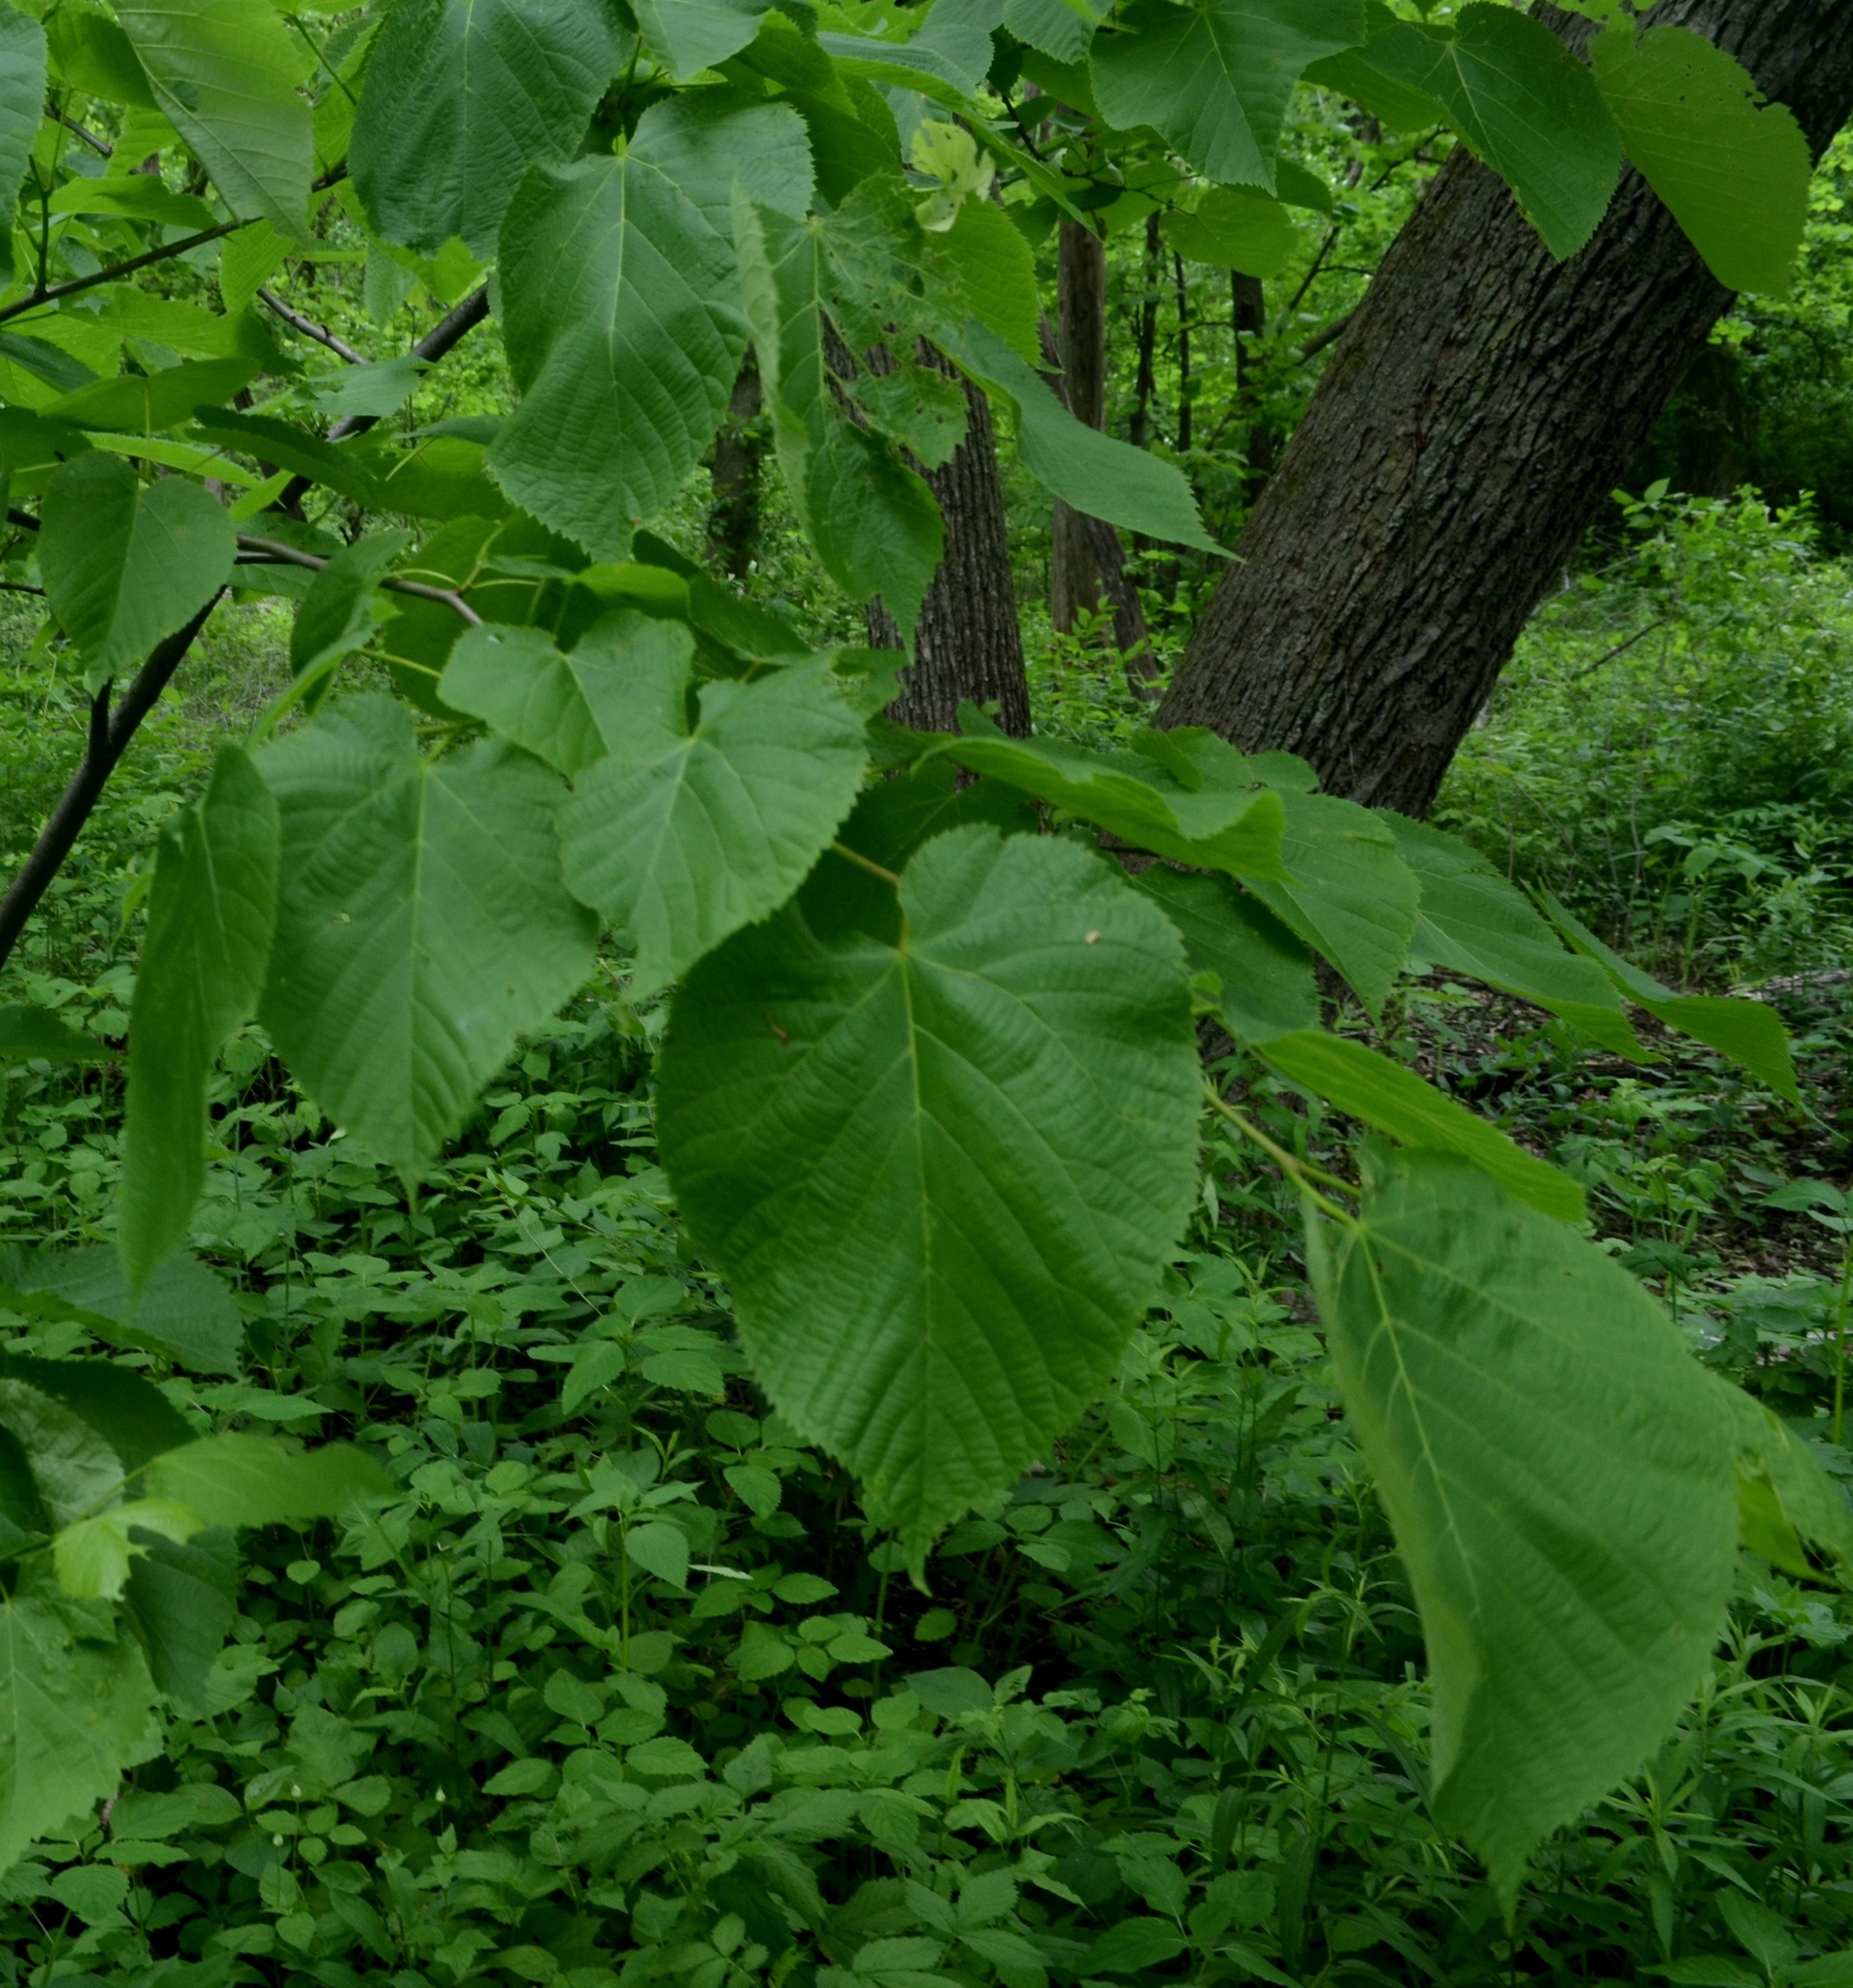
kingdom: Plantae
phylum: Tracheophyta
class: Magnoliopsida
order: Malvales
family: Malvaceae
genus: Tilia
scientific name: Tilia americana
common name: Basswood
